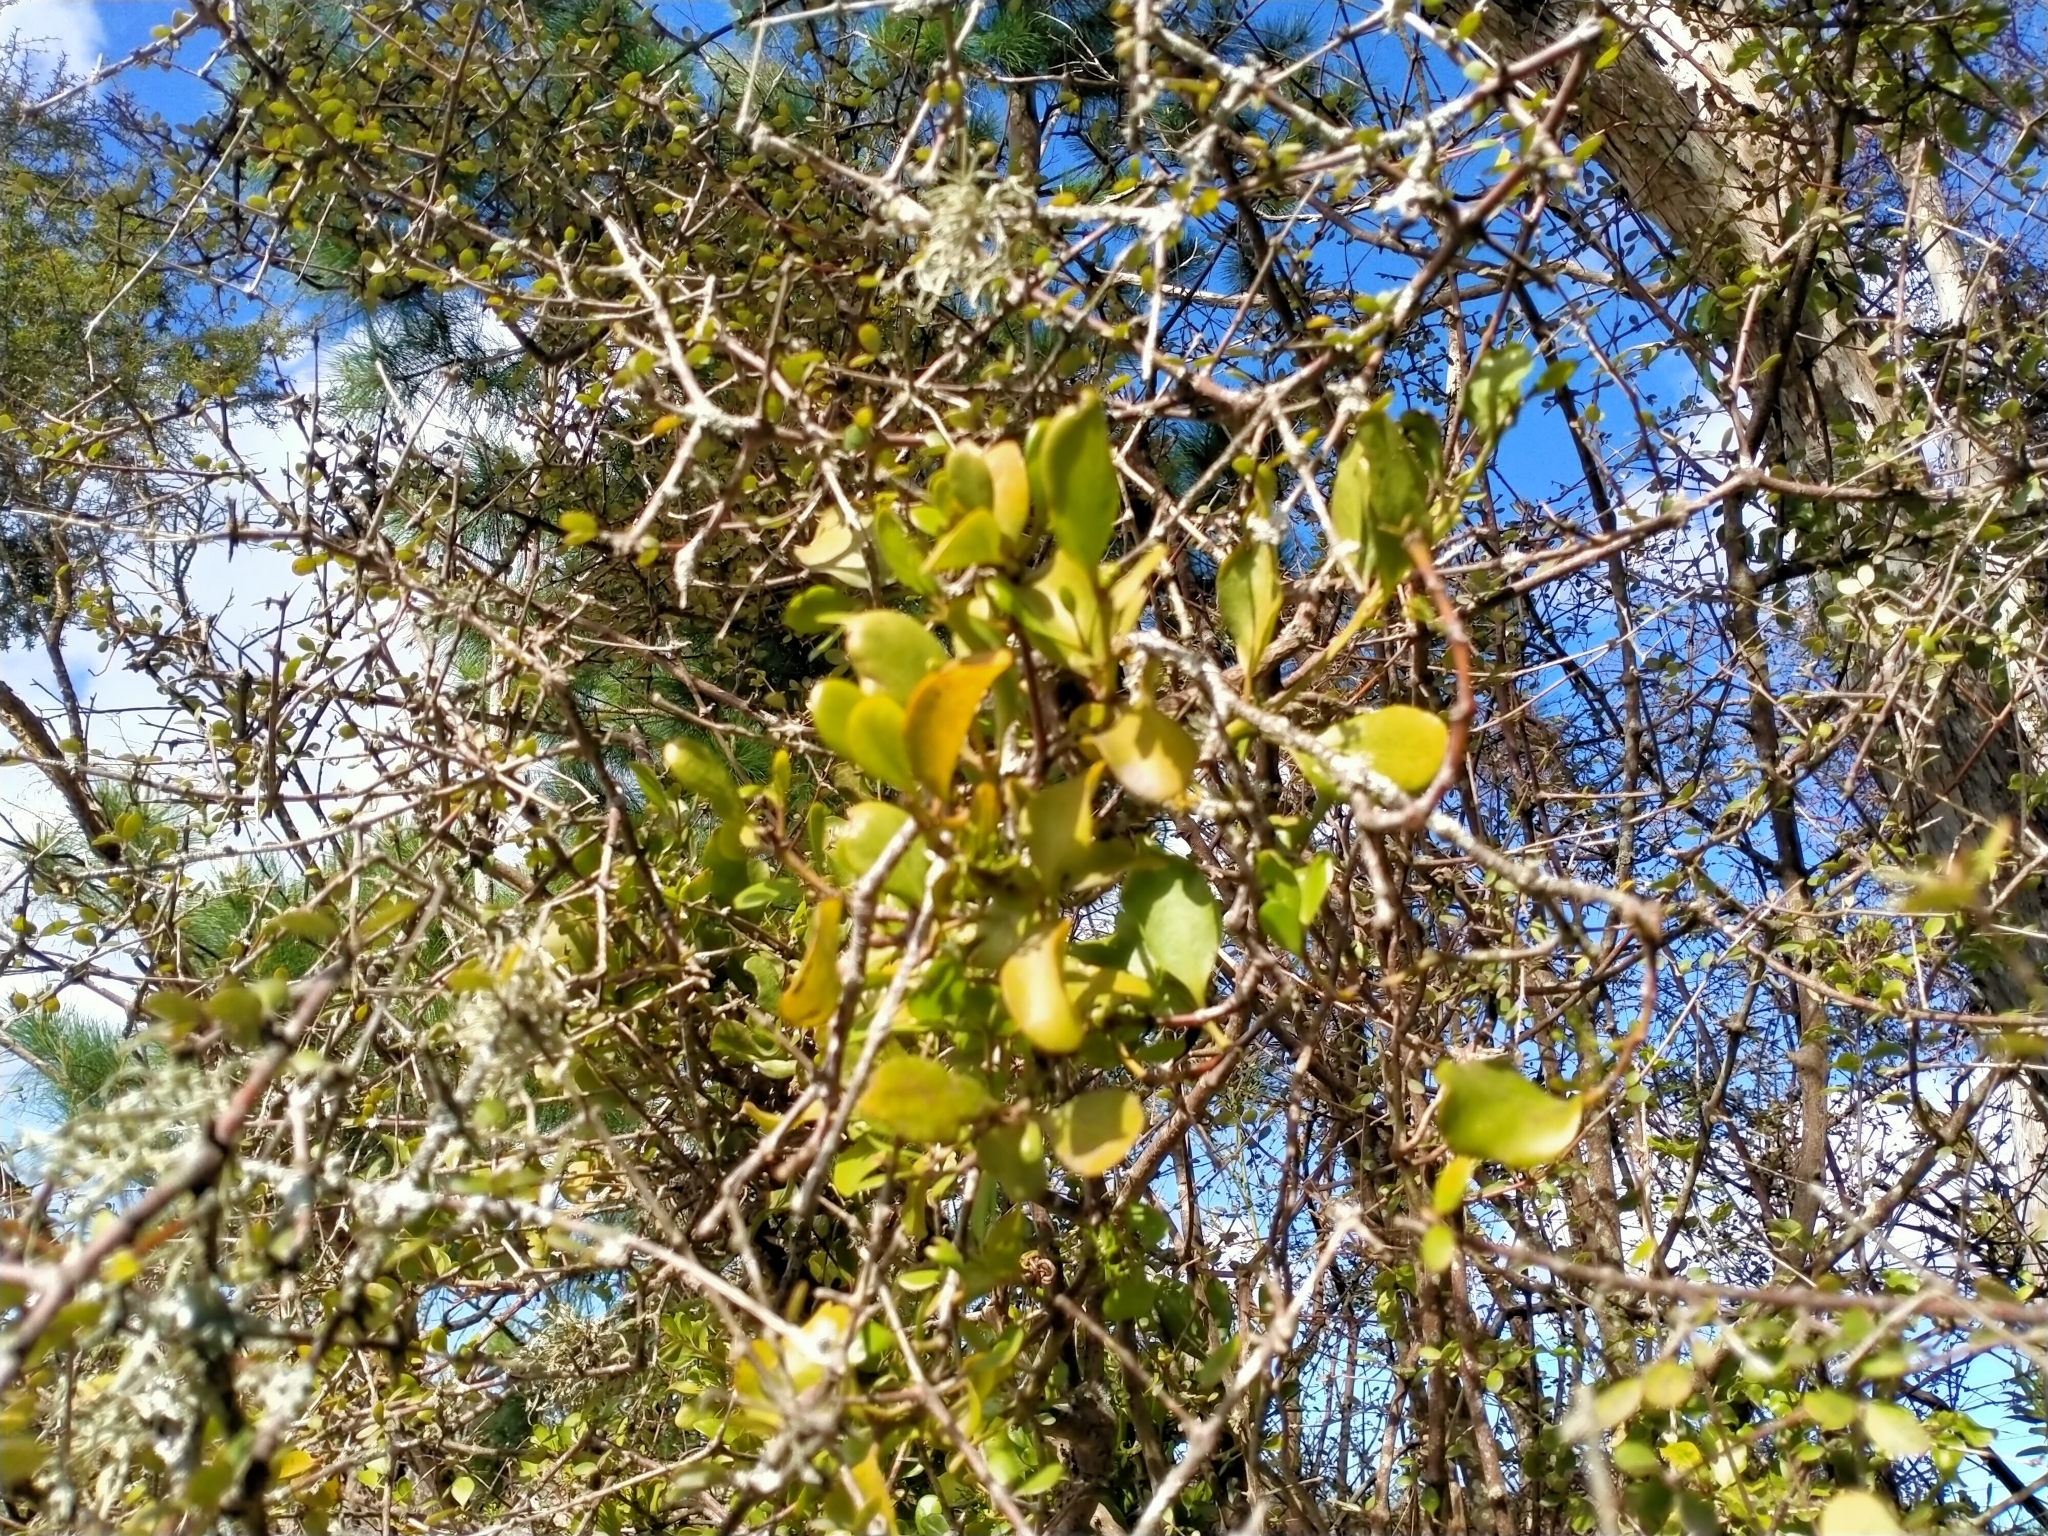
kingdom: Plantae
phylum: Tracheophyta
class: Magnoliopsida
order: Santalales
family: Loranthaceae
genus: Ileostylus
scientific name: Ileostylus micranthus
